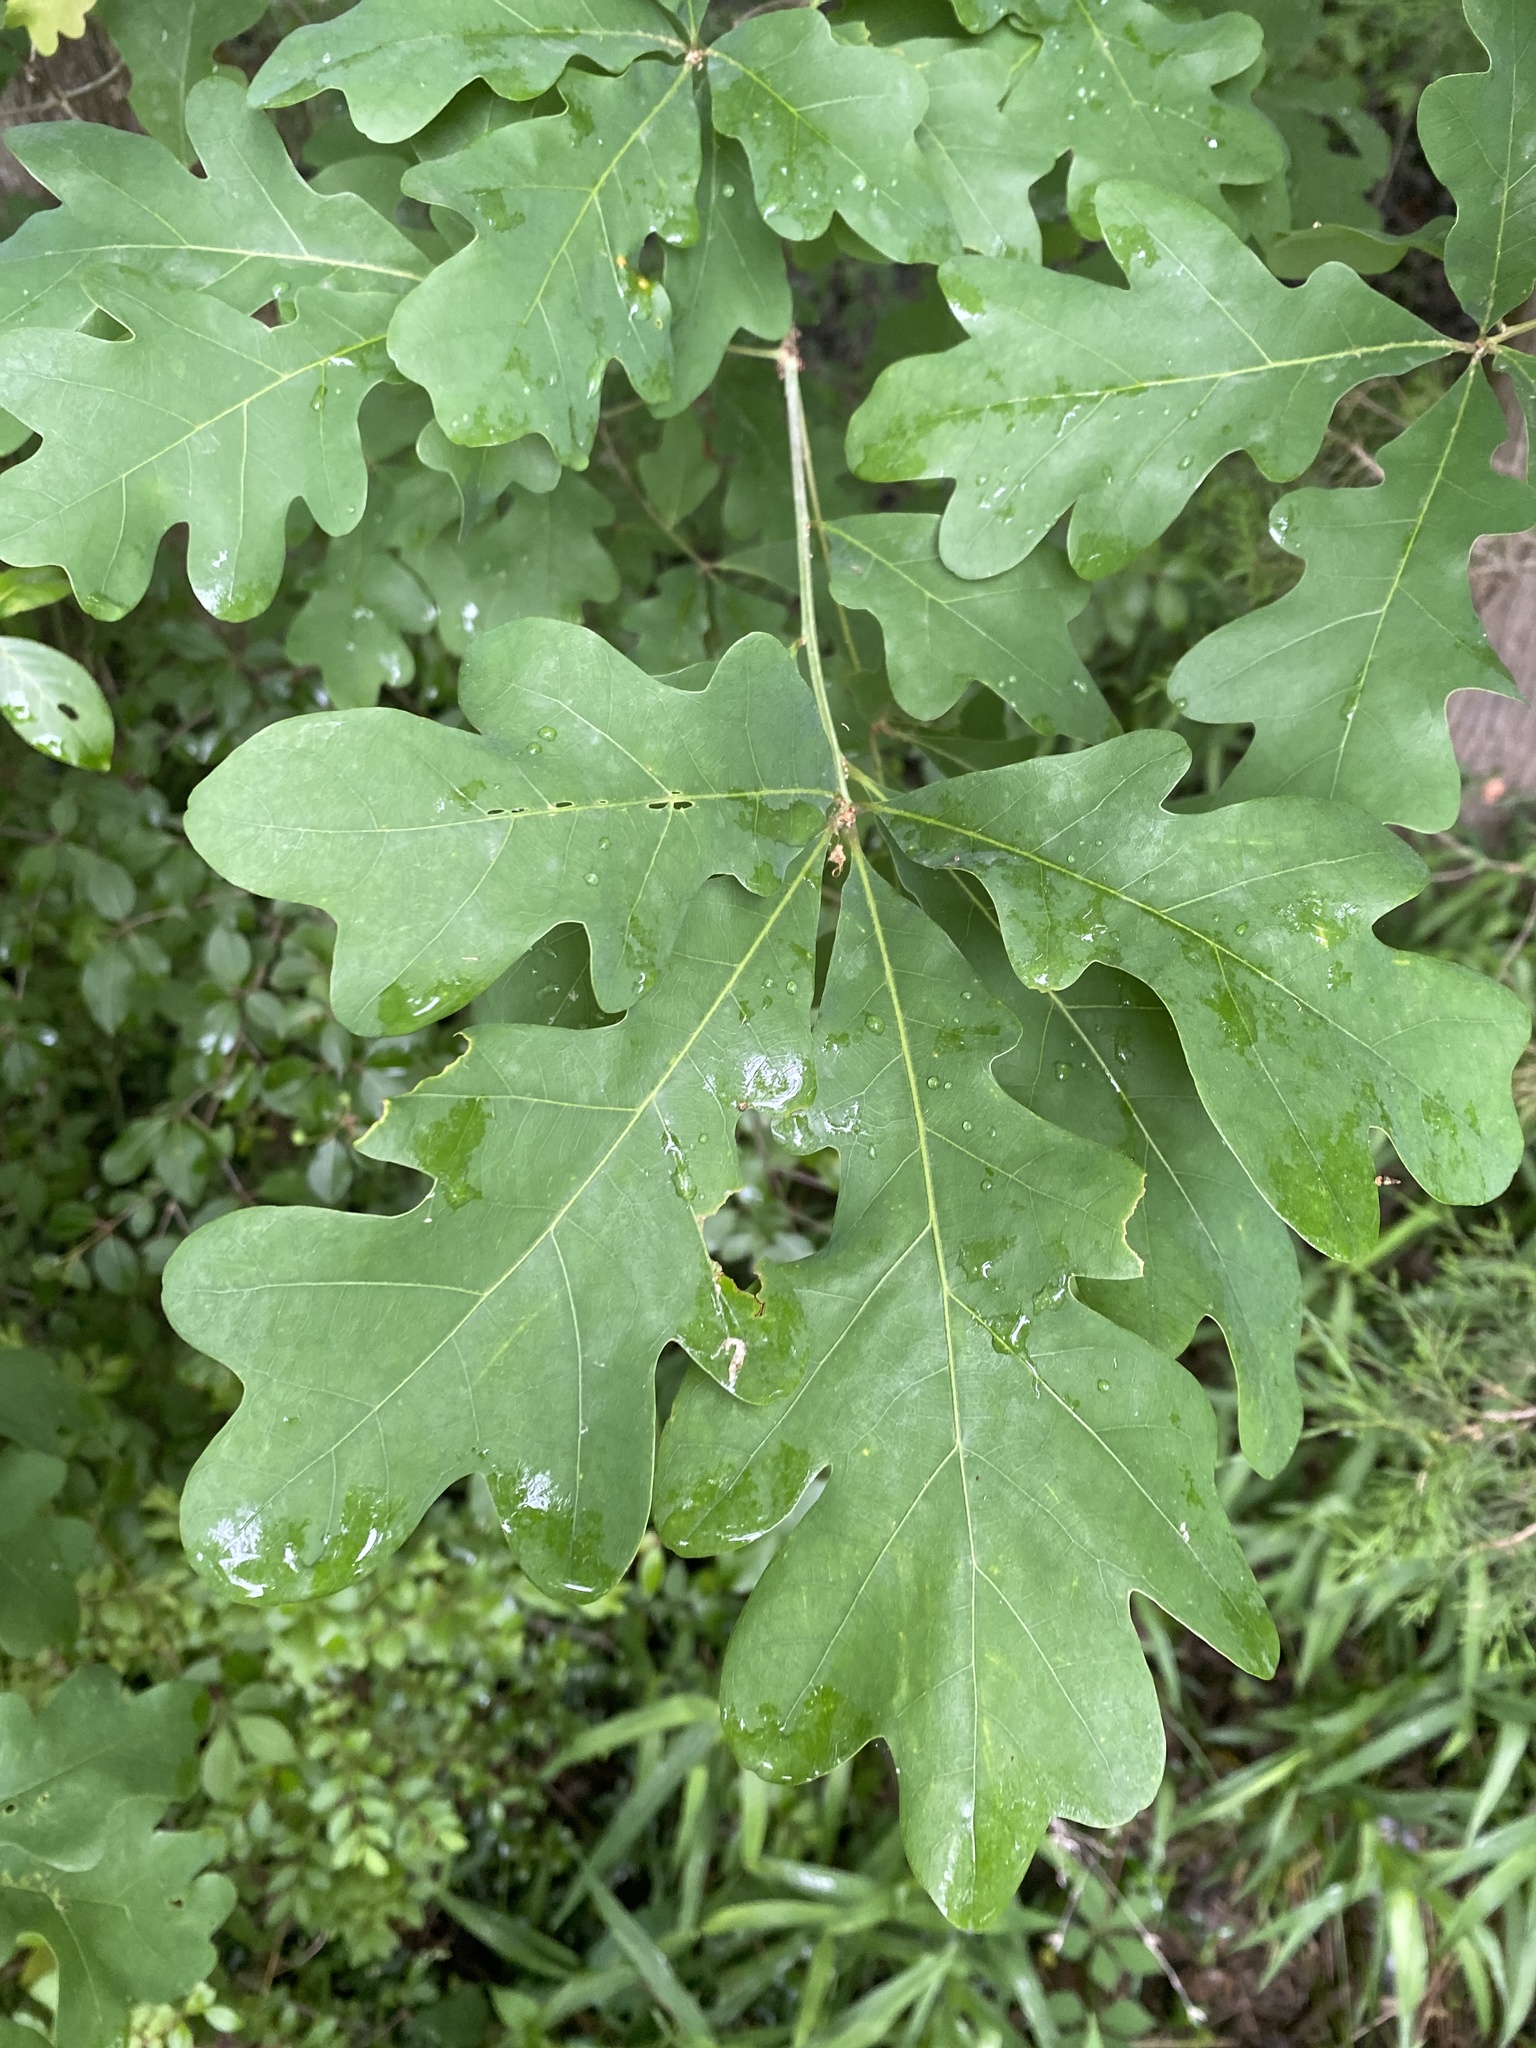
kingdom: Plantae
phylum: Tracheophyta
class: Magnoliopsida
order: Fagales
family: Fagaceae
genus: Quercus
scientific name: Quercus alba
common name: White oak
